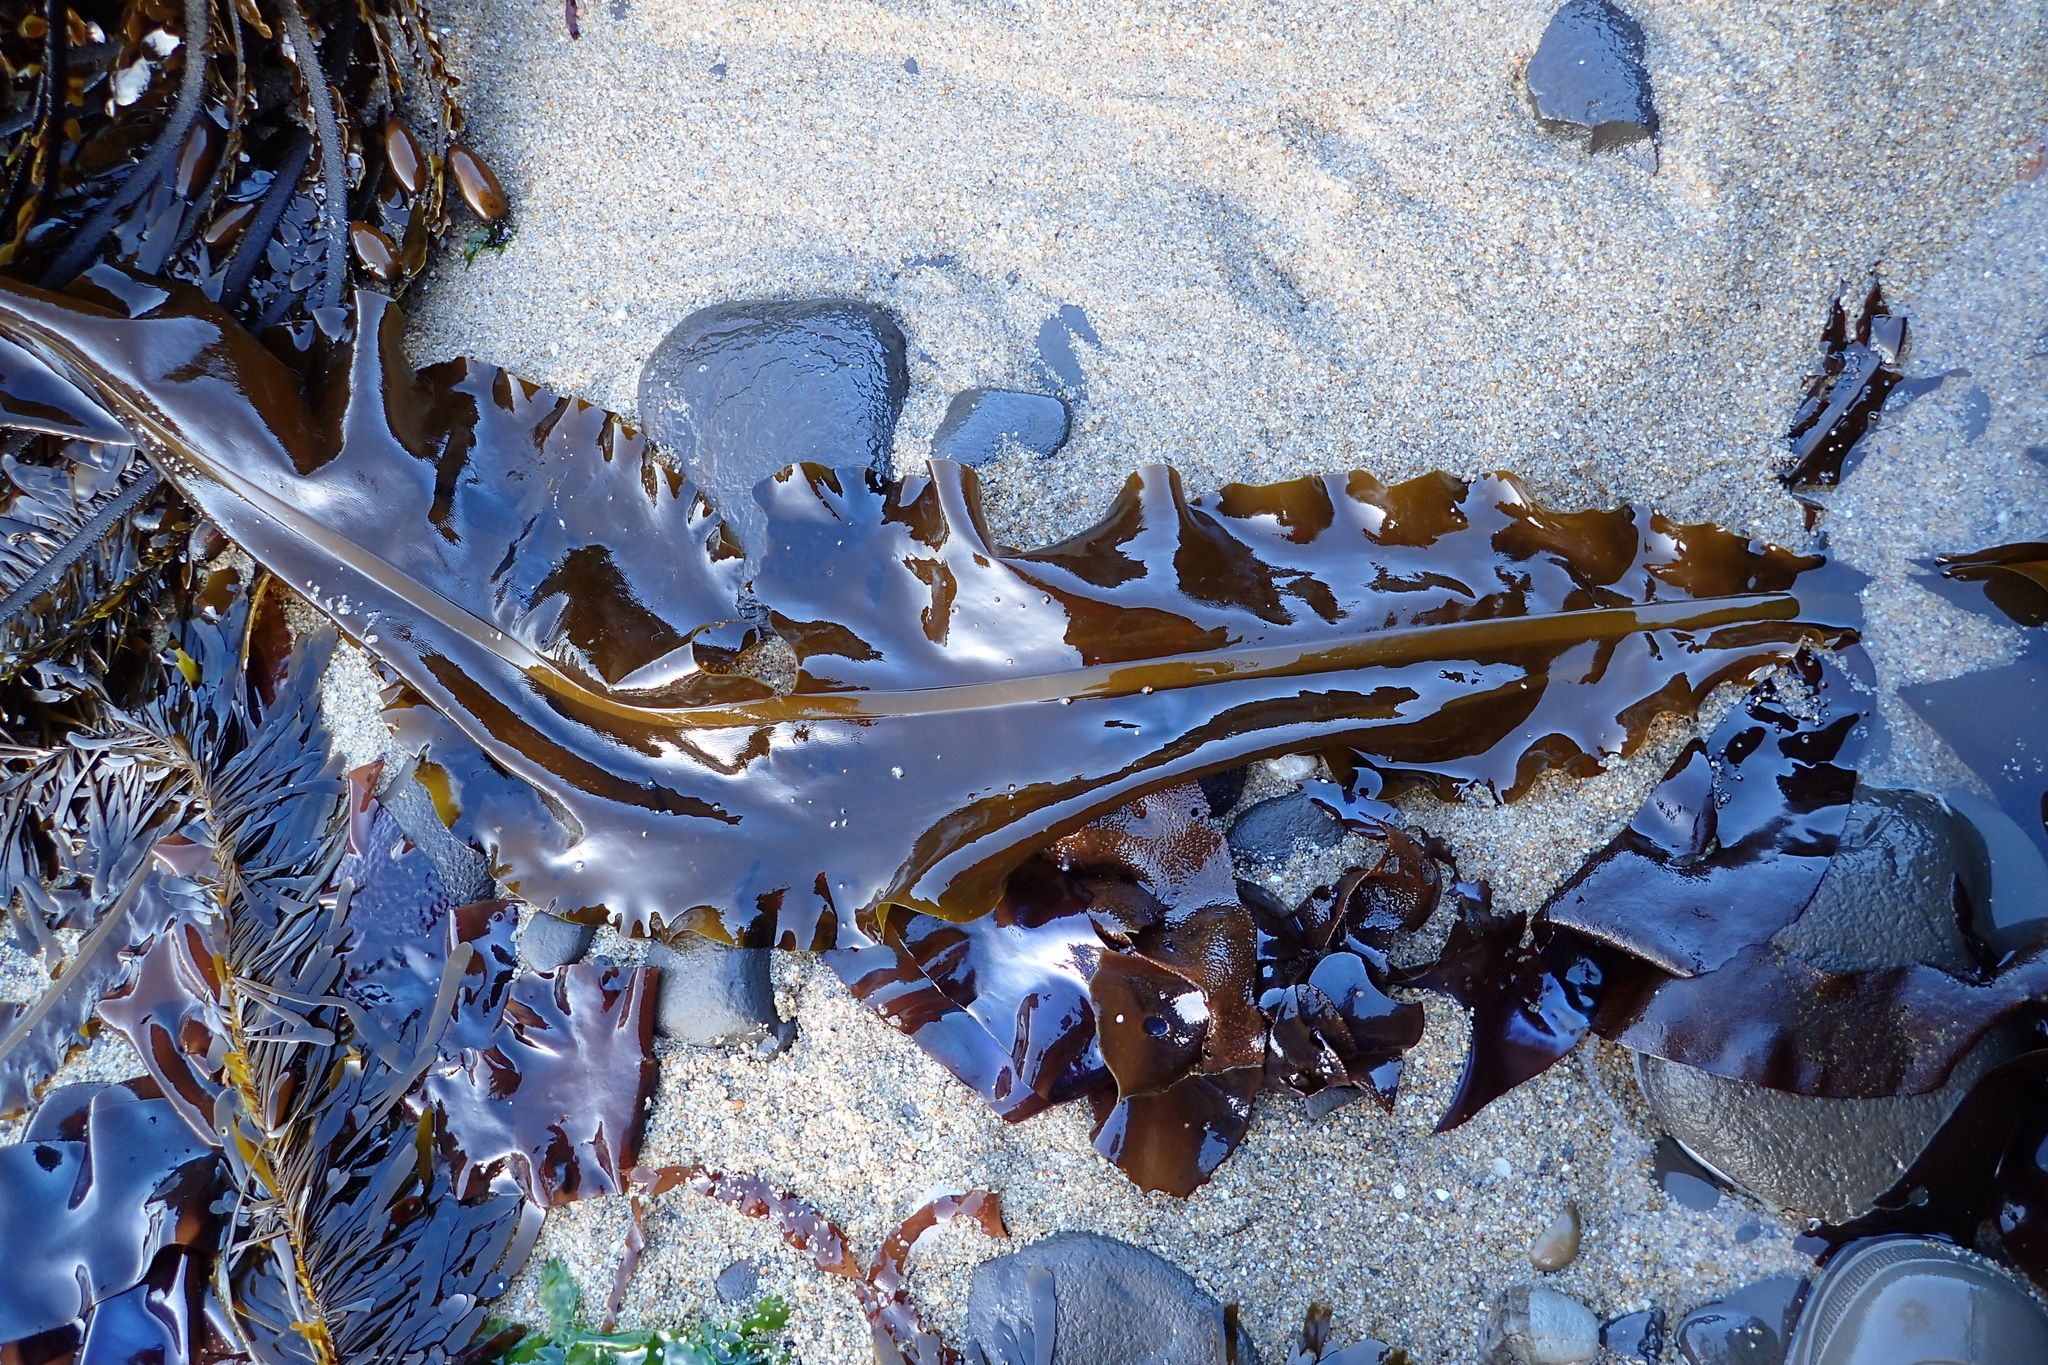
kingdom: Chromista
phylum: Ochrophyta
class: Phaeophyceae
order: Laminariales
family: Alariaceae
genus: Alaria
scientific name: Alaria marginata
